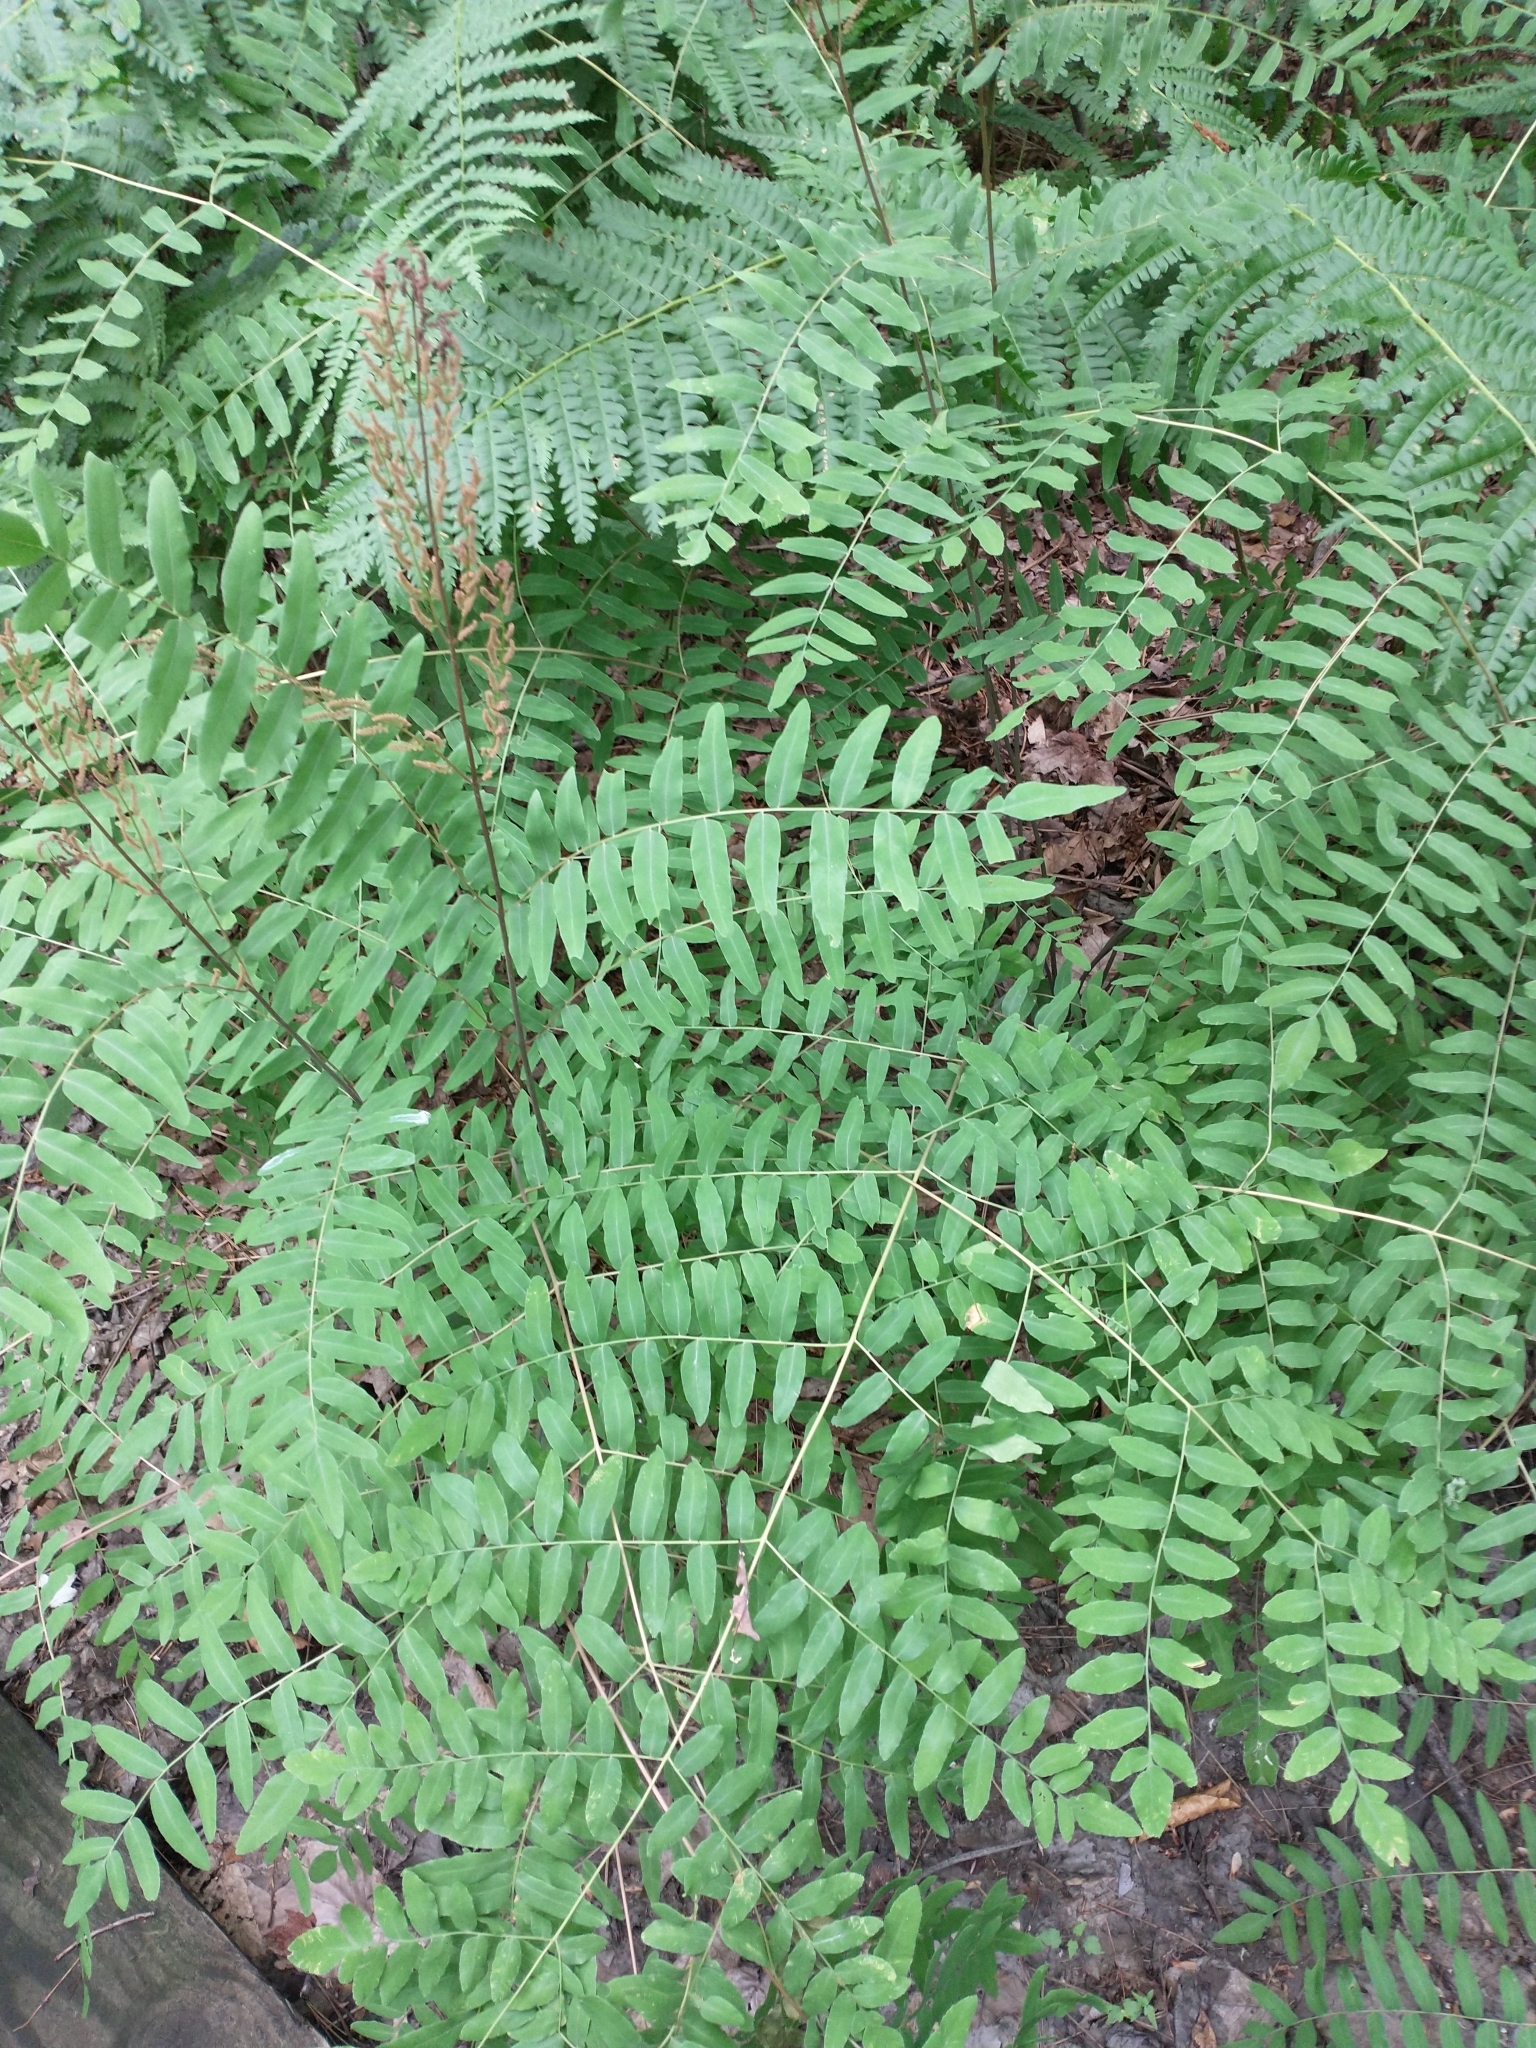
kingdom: Plantae
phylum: Tracheophyta
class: Polypodiopsida
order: Osmundales
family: Osmundaceae
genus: Osmunda
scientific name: Osmunda spectabilis
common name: American royal fern
